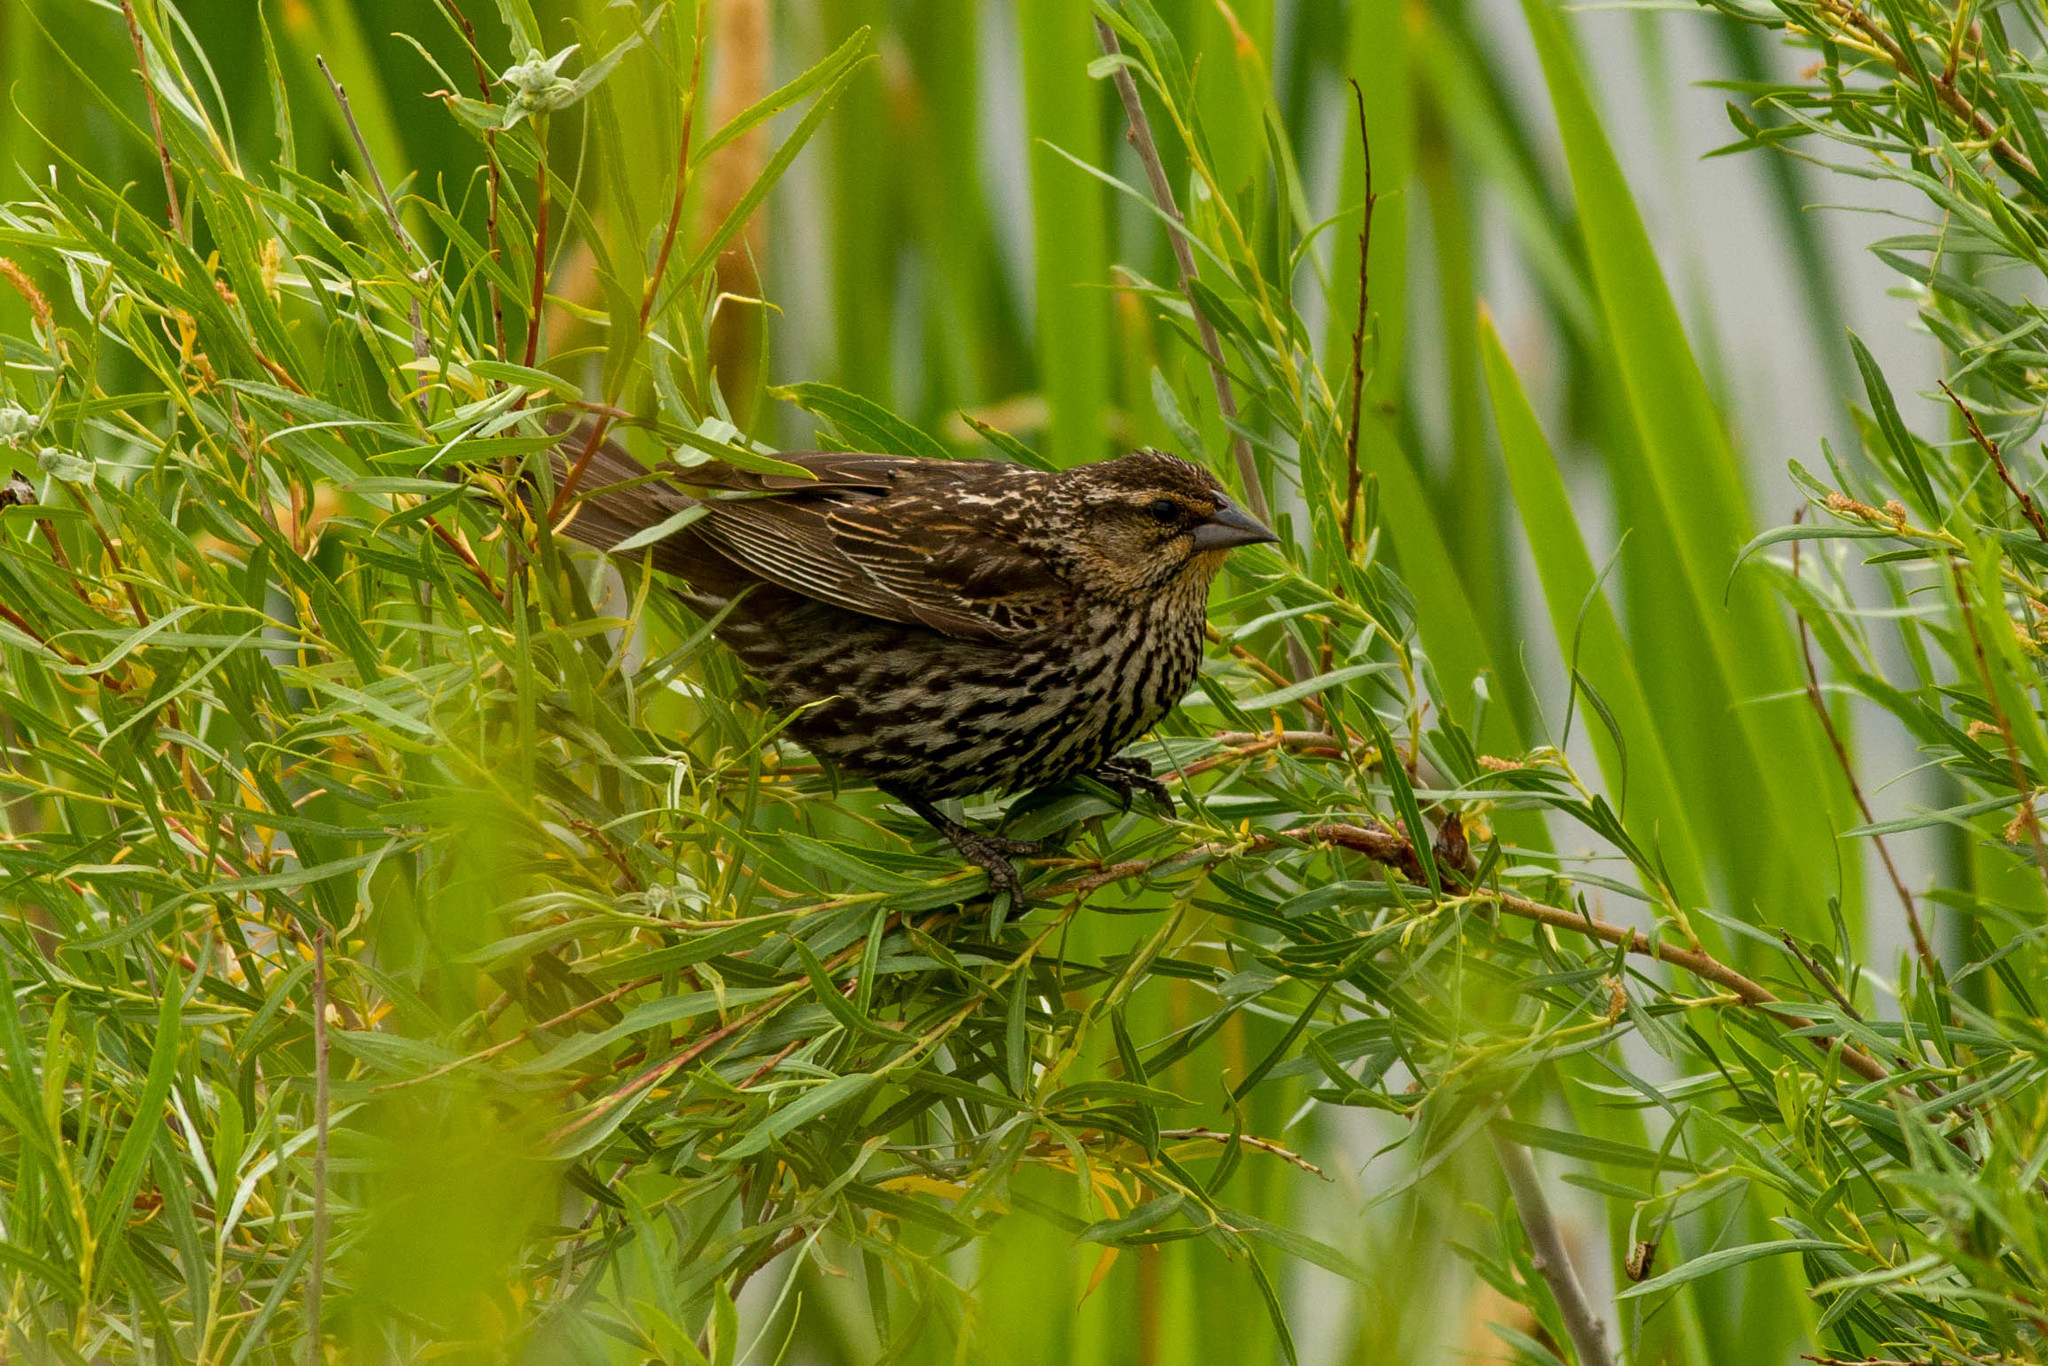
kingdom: Animalia
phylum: Chordata
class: Aves
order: Passeriformes
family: Icteridae
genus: Agelaius
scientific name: Agelaius phoeniceus
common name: Red-winged blackbird
